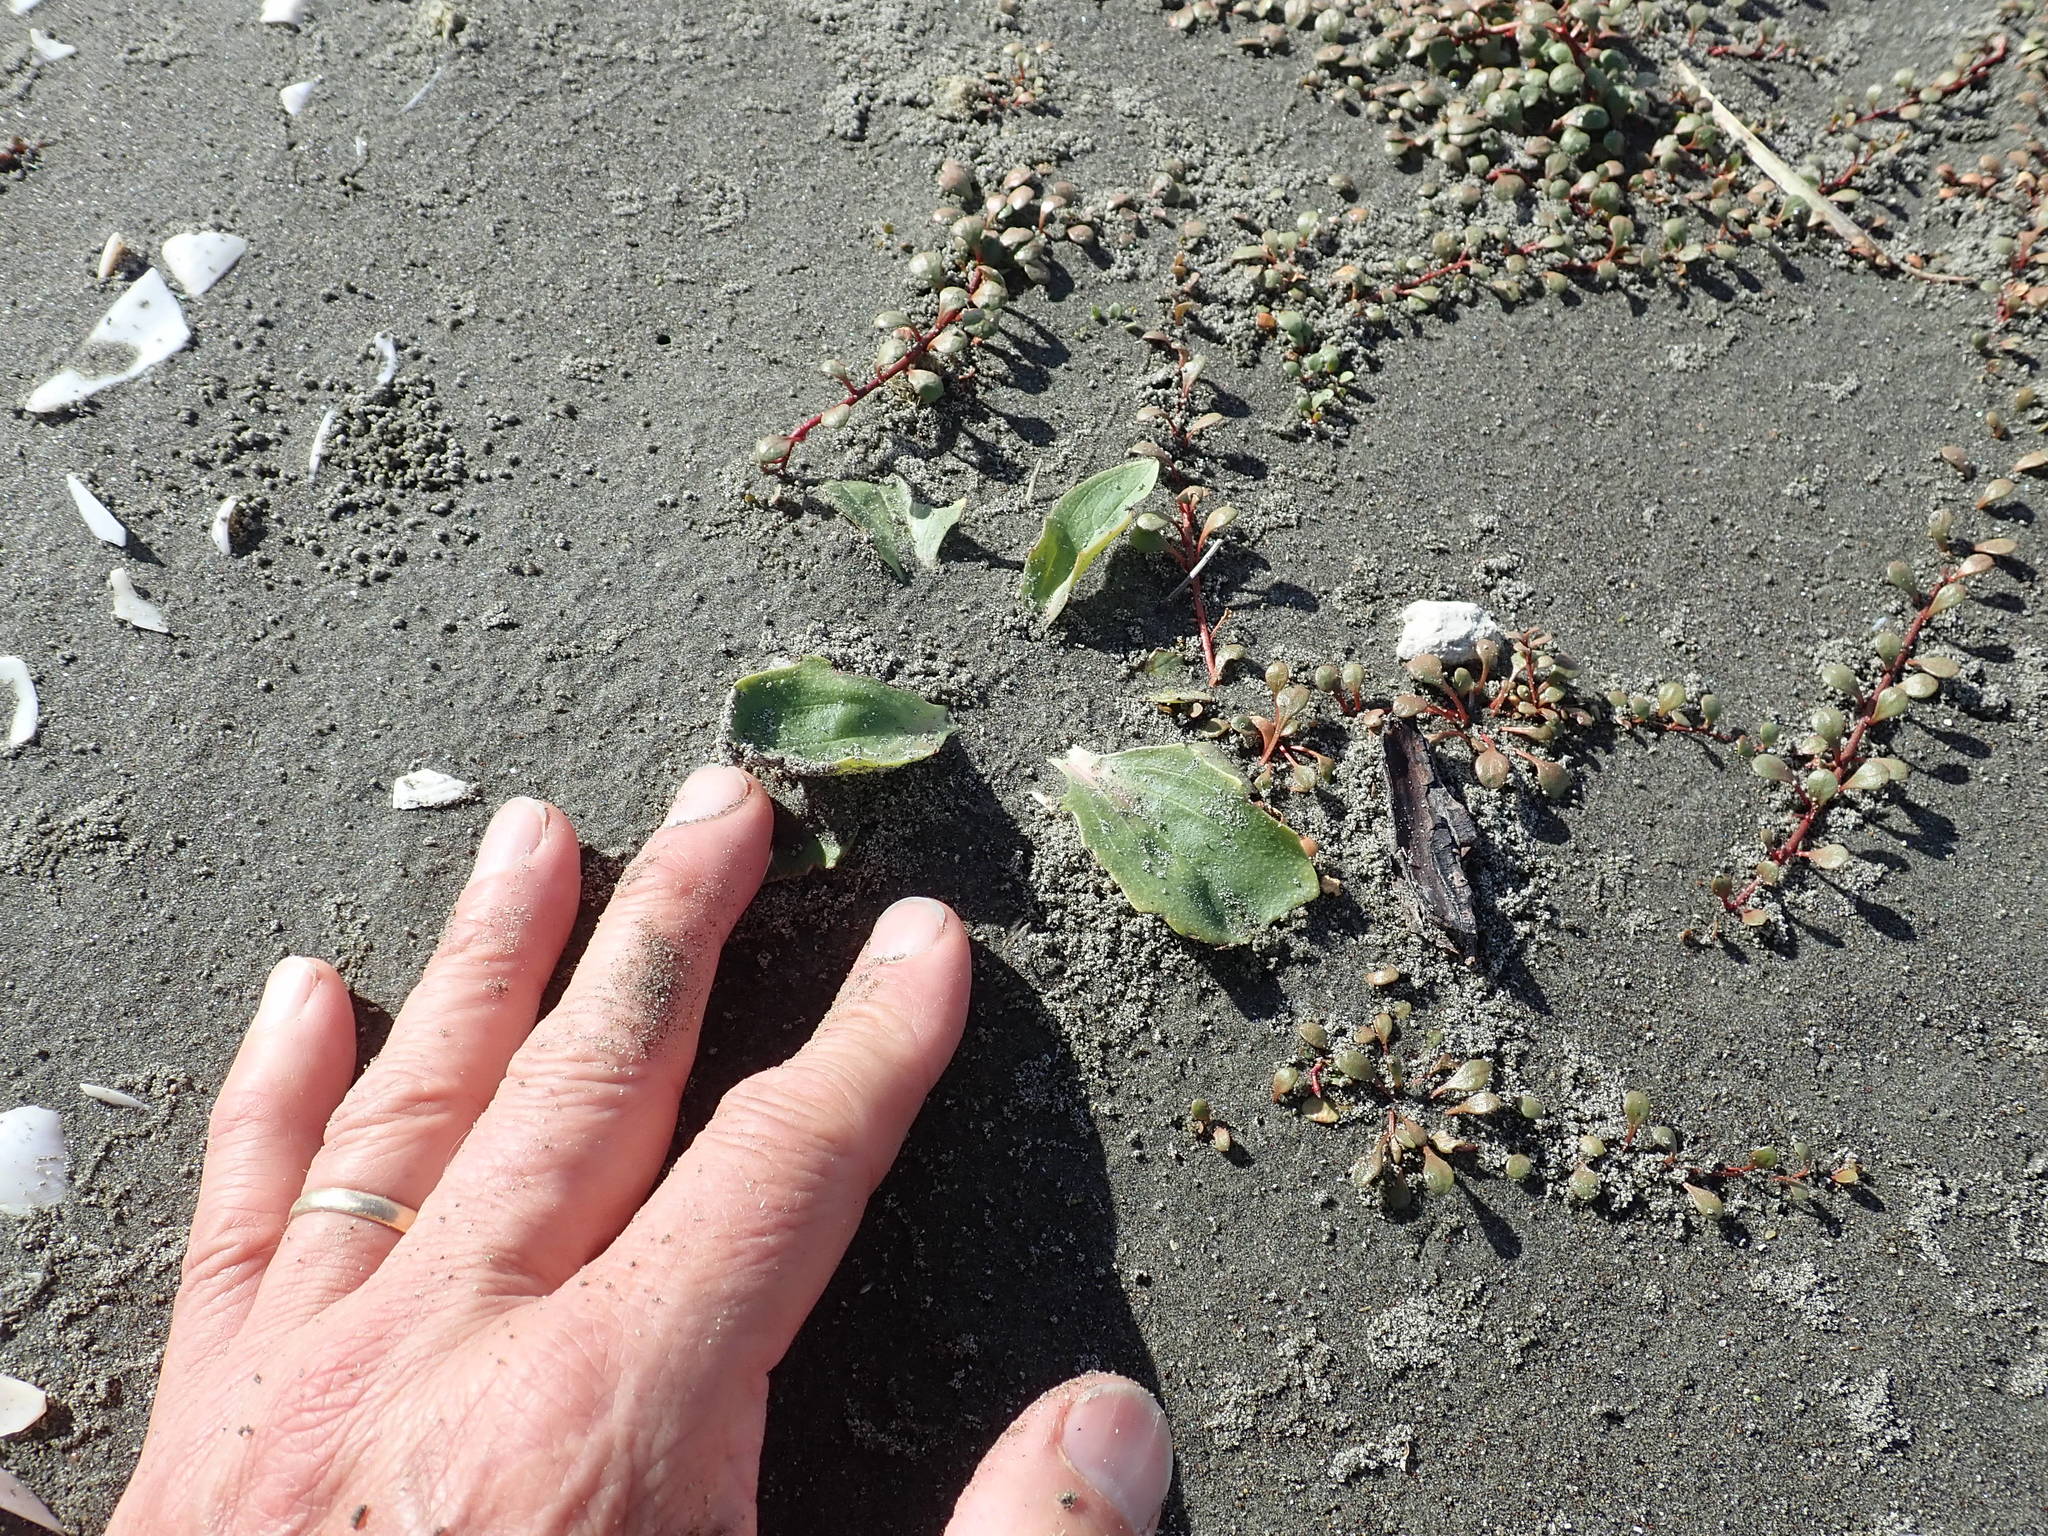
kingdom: Plantae
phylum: Tracheophyta
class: Magnoliopsida
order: Lamiales
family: Plantaginaceae
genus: Plantago
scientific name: Plantago major
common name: Common plantain
